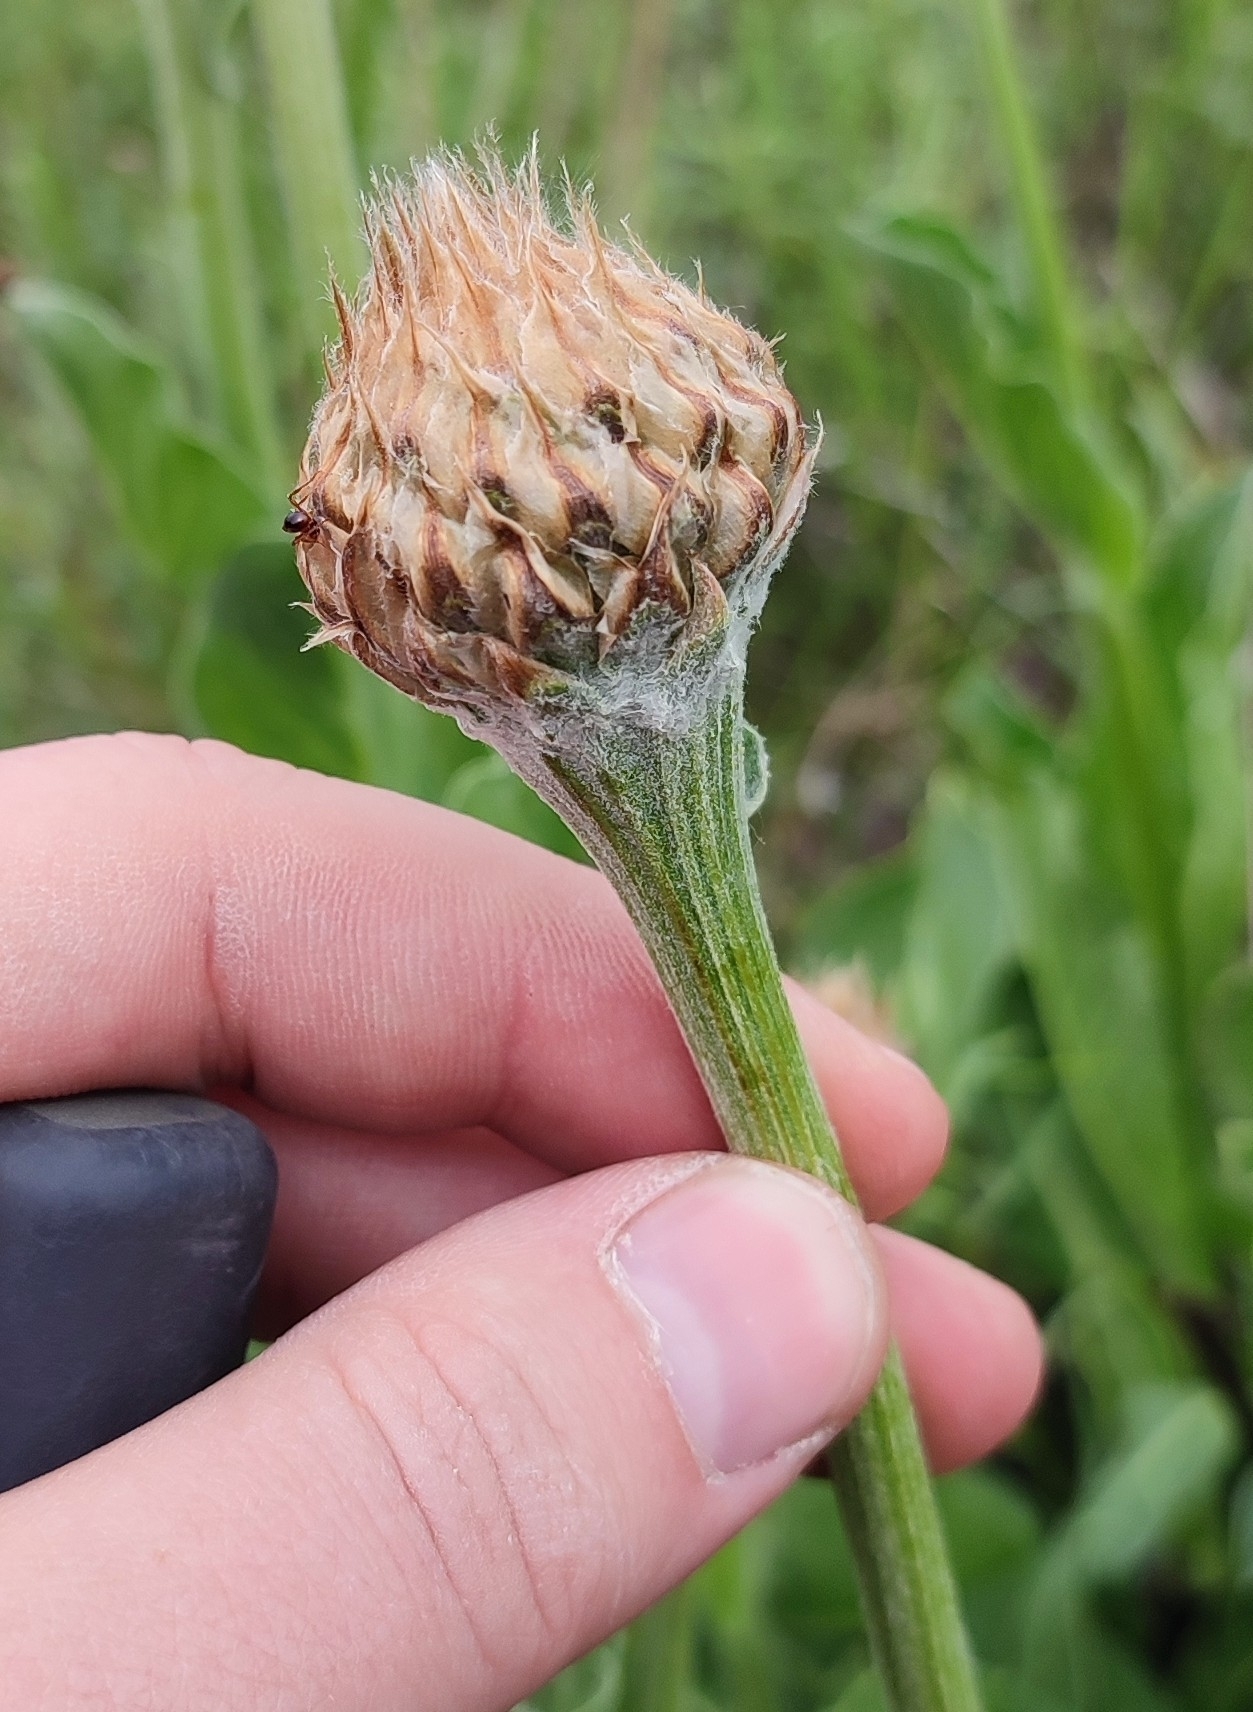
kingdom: Plantae
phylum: Tracheophyta
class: Magnoliopsida
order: Asterales
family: Asteraceae
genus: Leuzea
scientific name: Leuzea carthamoides
